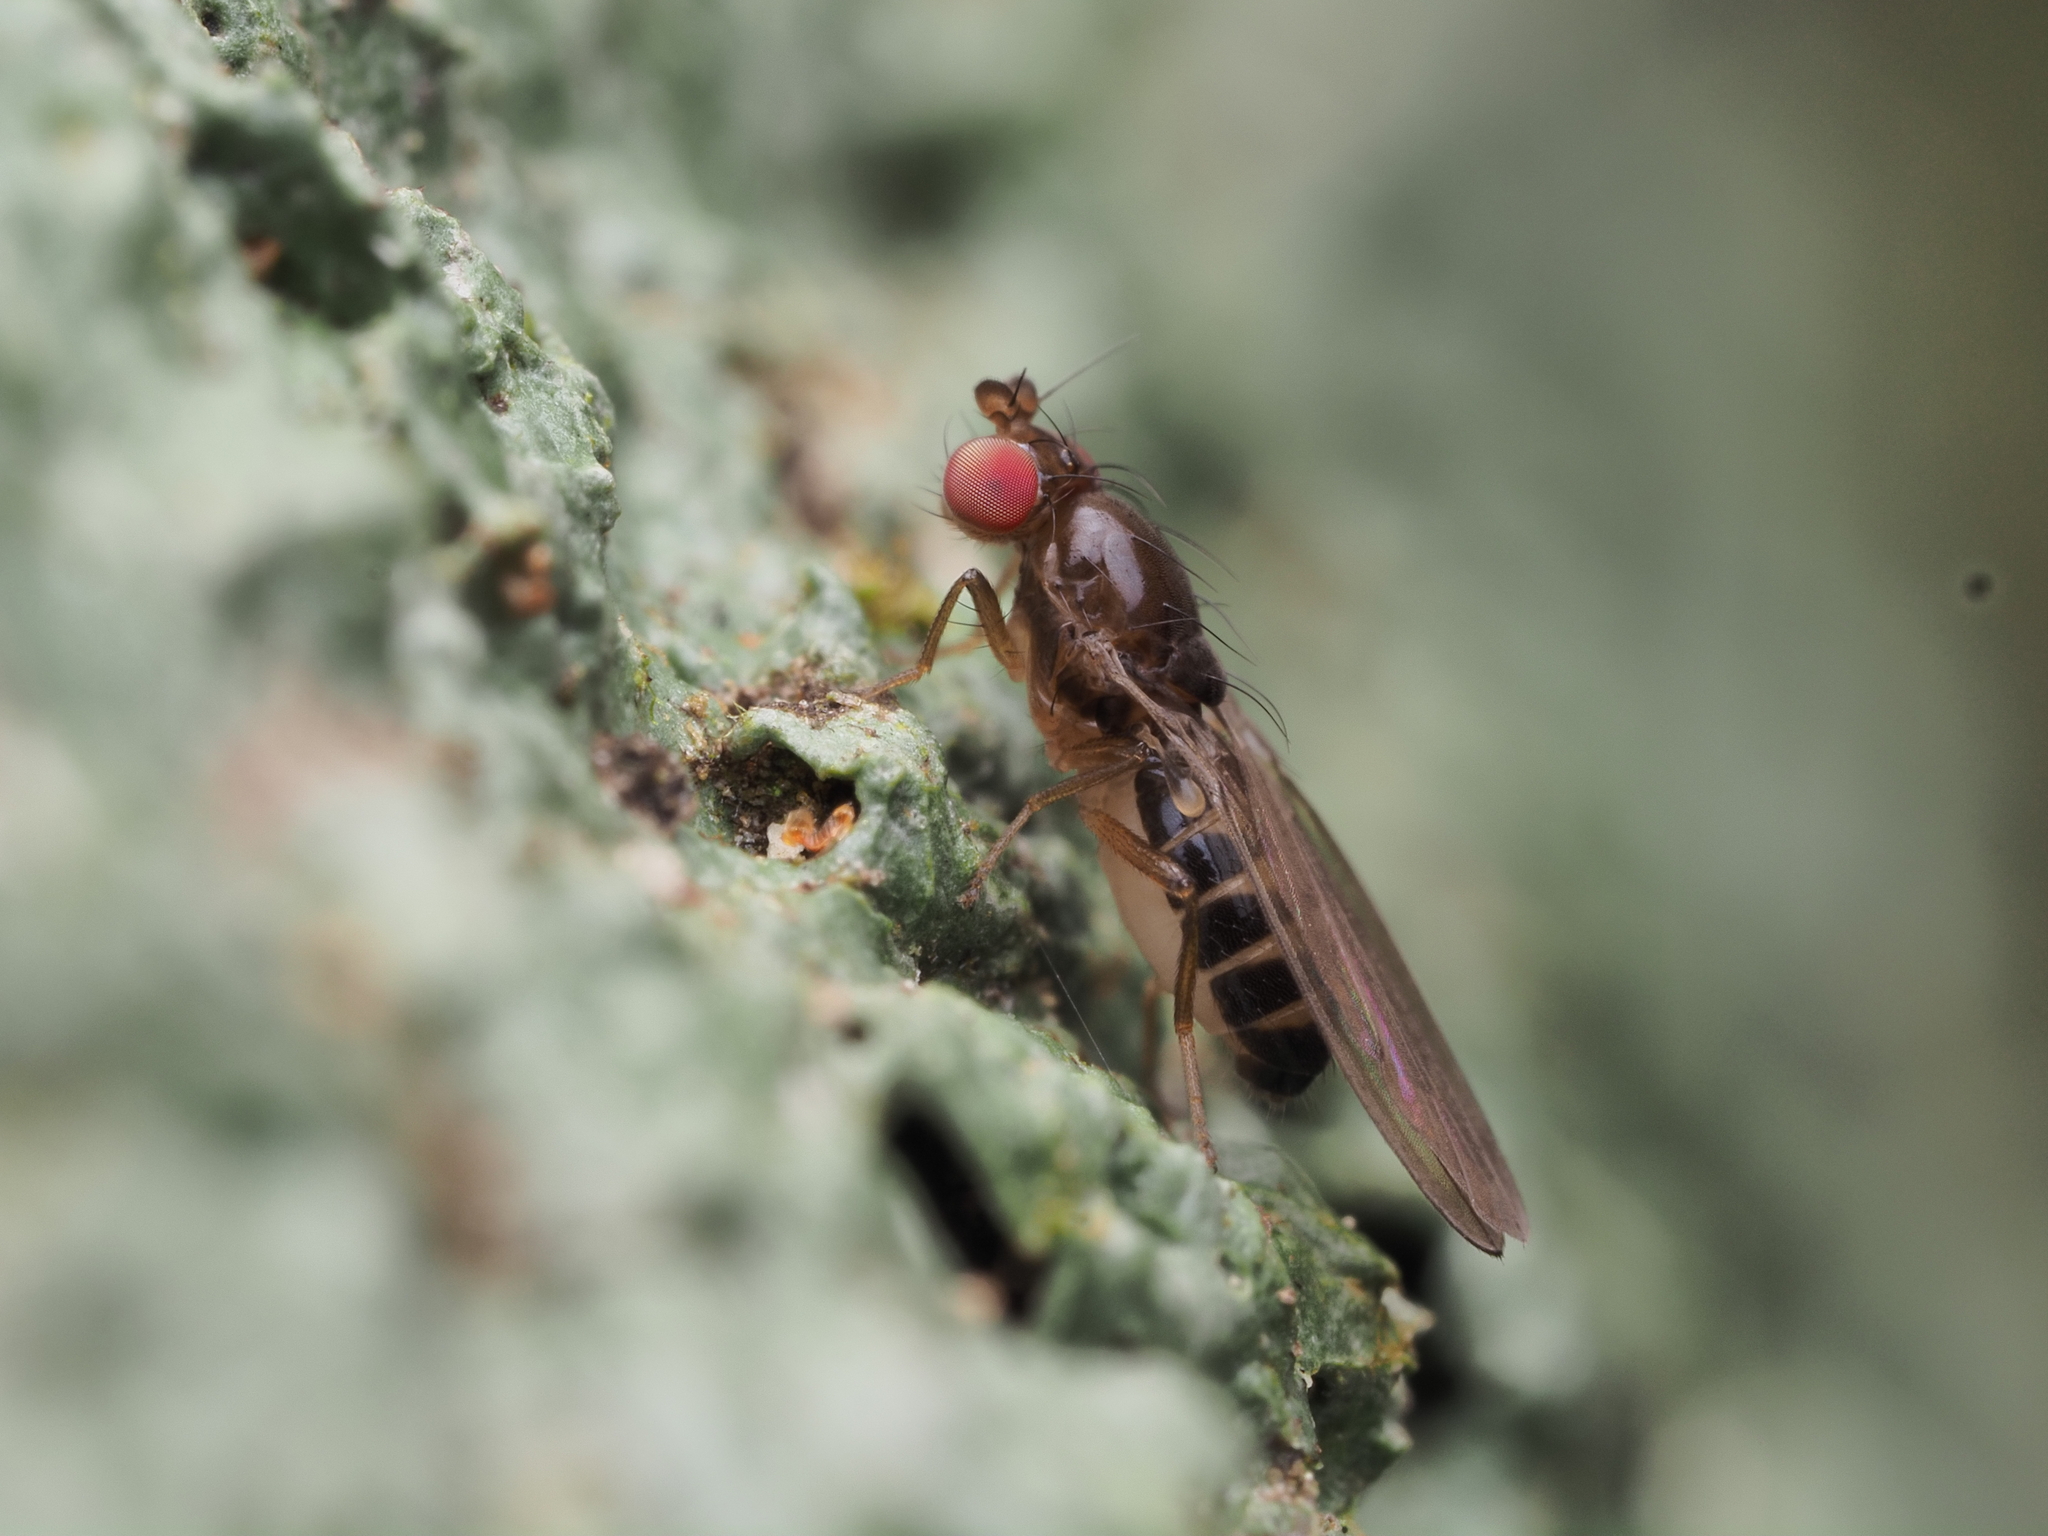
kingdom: Animalia
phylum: Arthropoda
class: Insecta
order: Diptera
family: Teratomyzidae
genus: Teratomyza
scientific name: Teratomyza neozelandica
